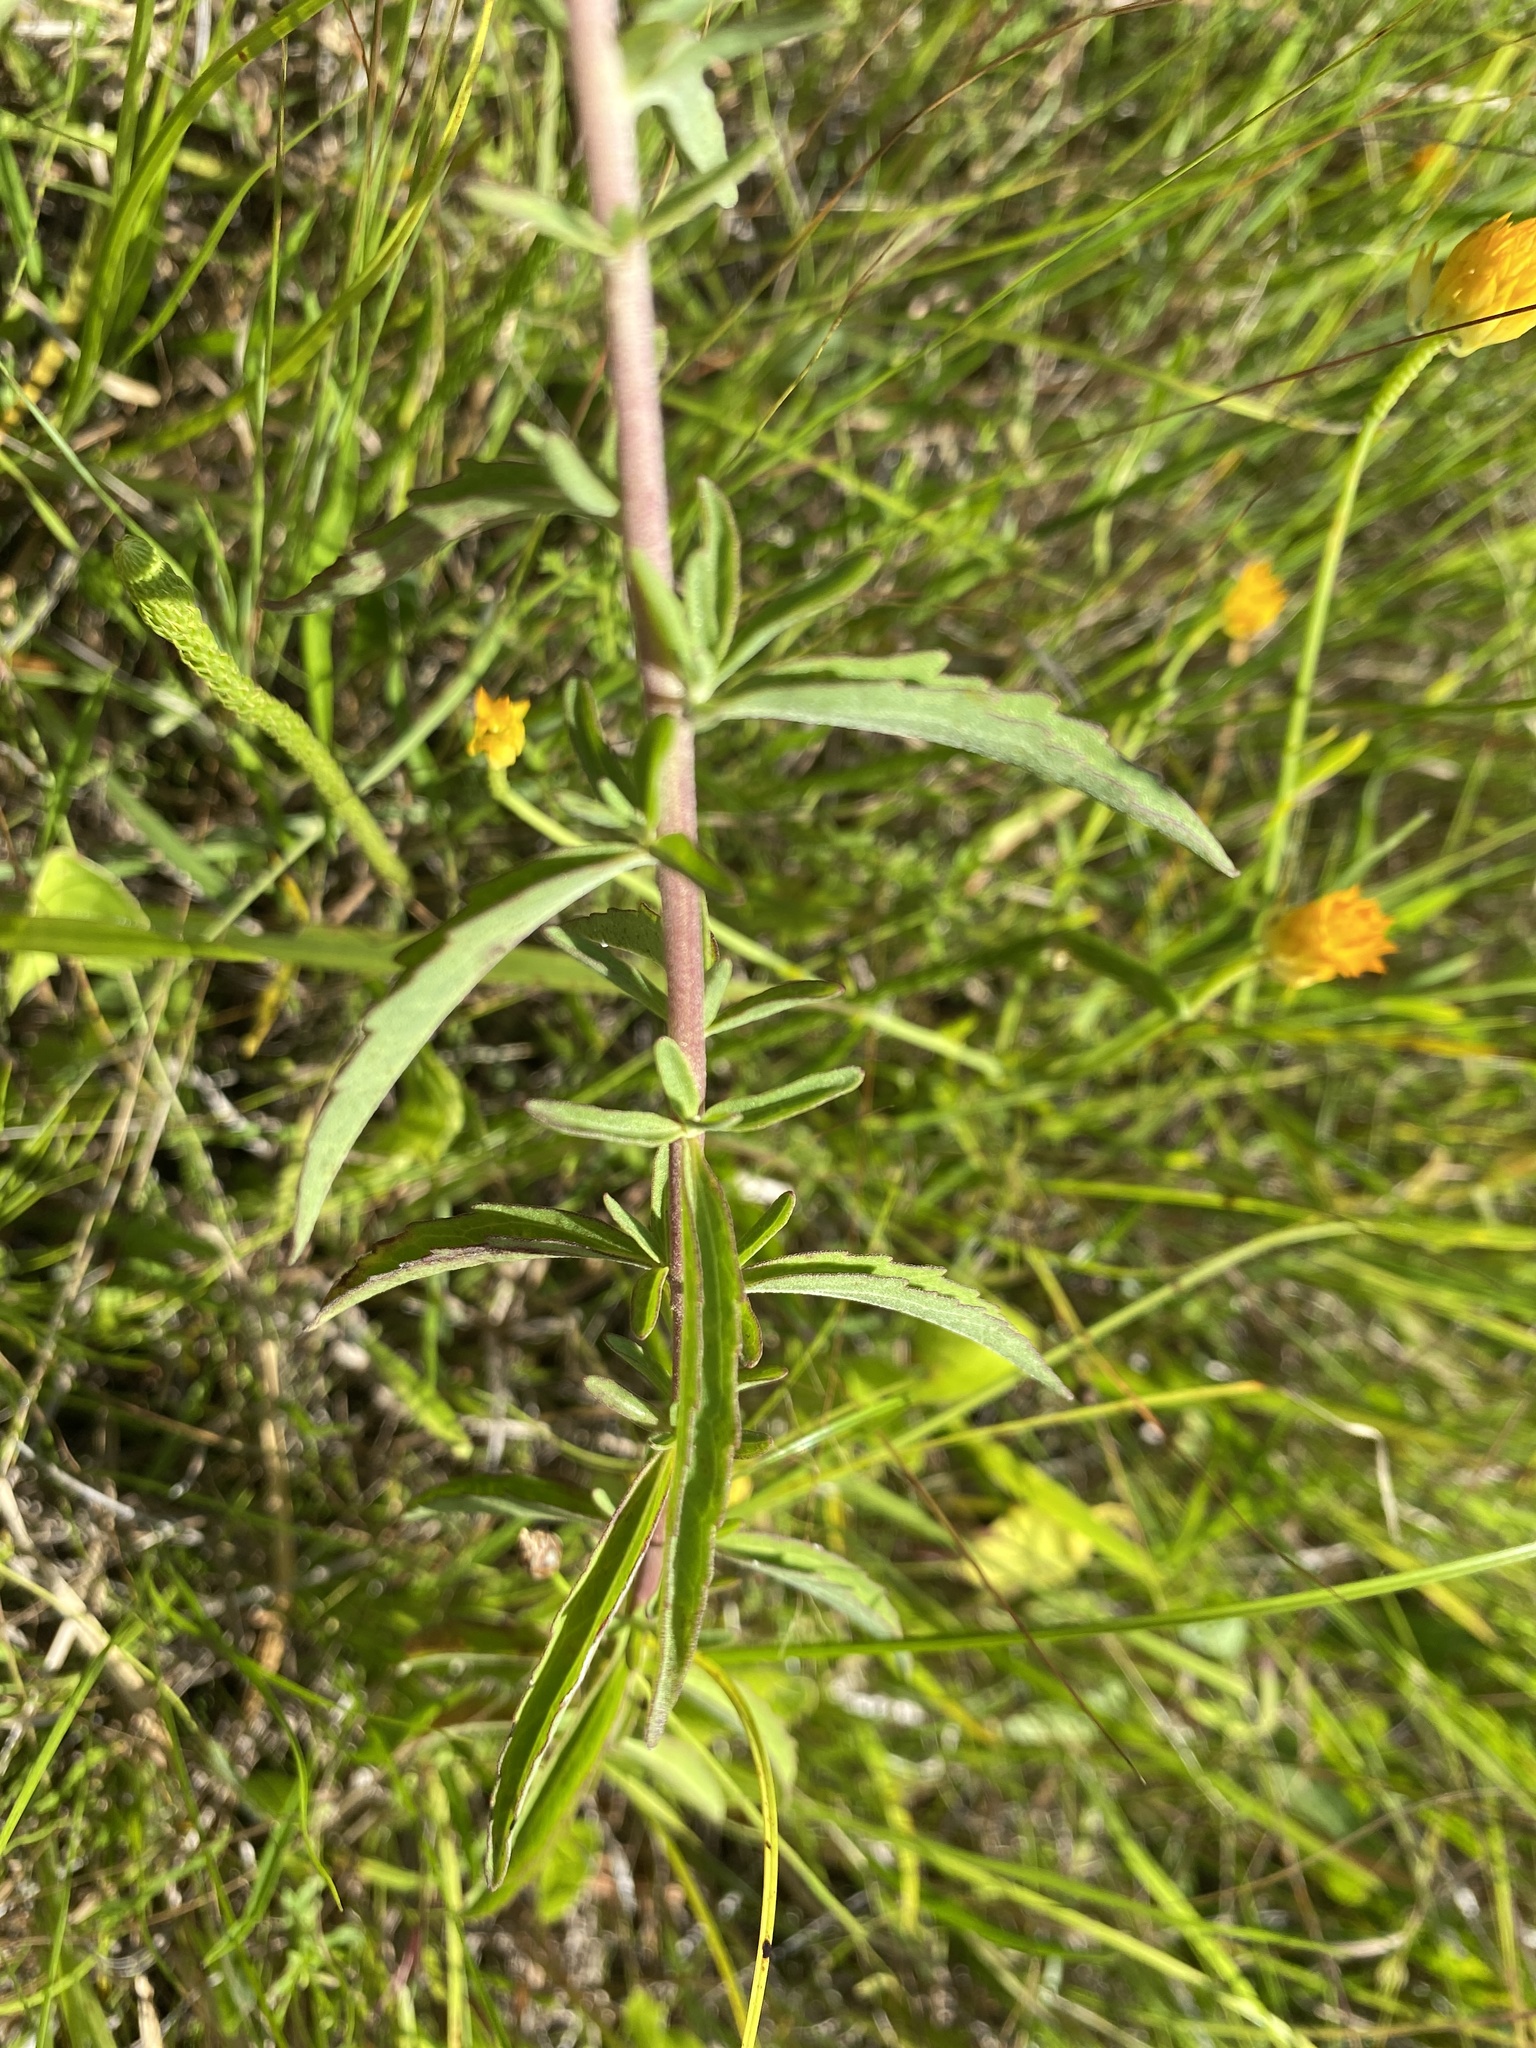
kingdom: Plantae
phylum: Tracheophyta
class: Magnoliopsida
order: Asterales
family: Asteraceae
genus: Eupatorium
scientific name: Eupatorium mohrii
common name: Mohr's thoroughwort
